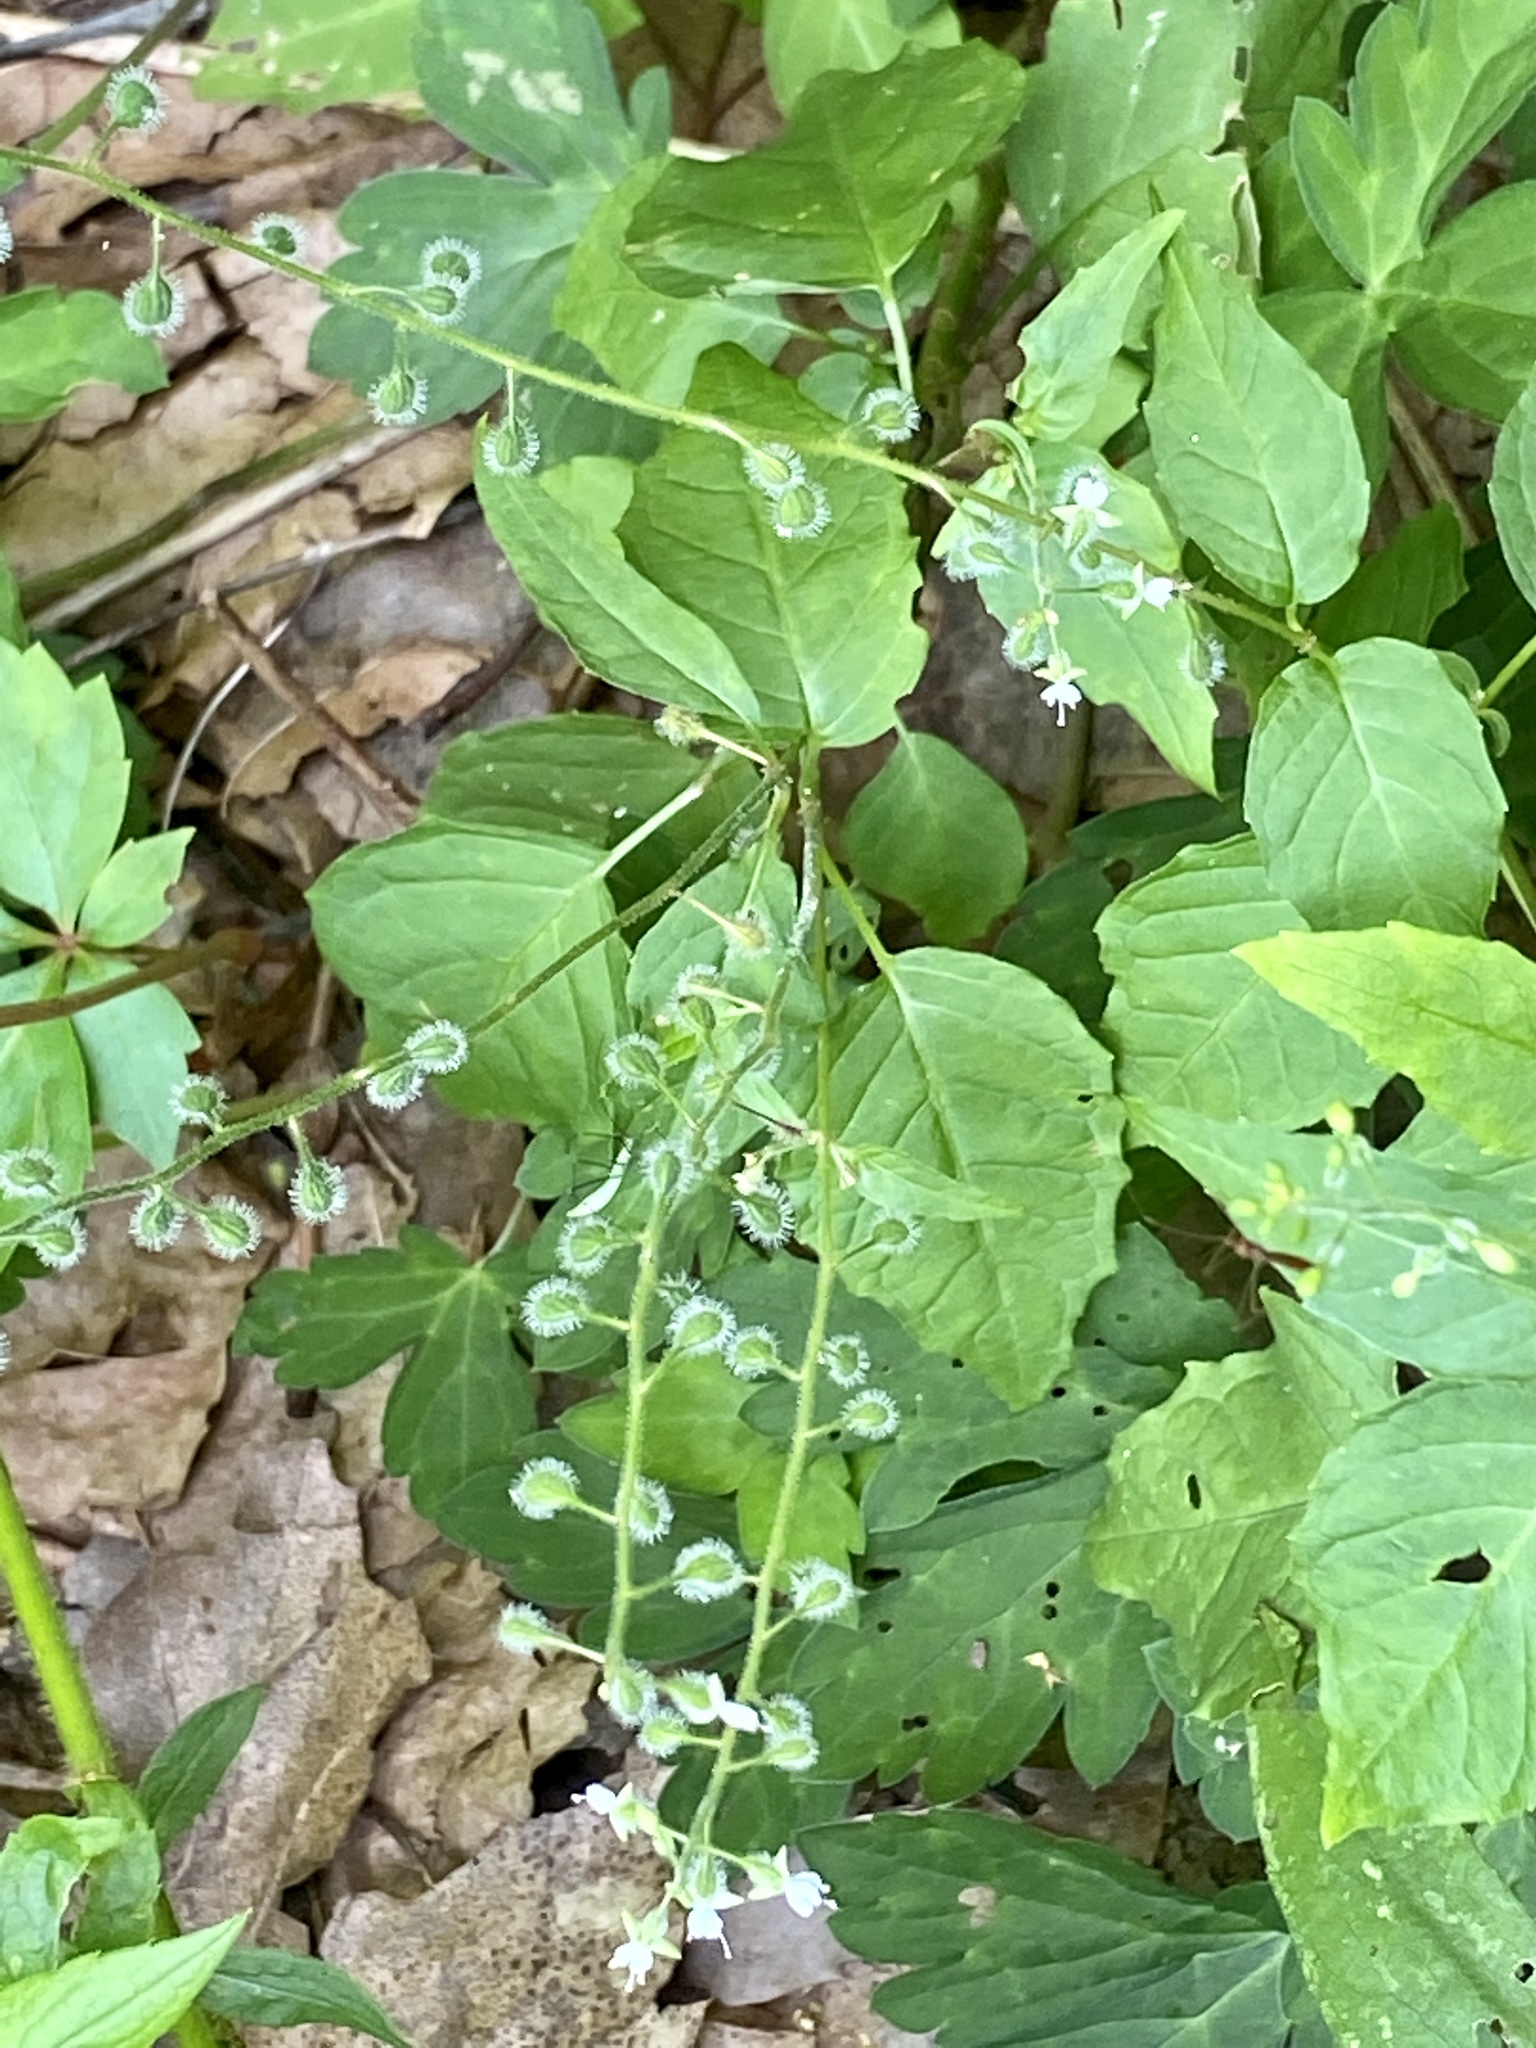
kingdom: Plantae
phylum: Tracheophyta
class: Magnoliopsida
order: Myrtales
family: Onagraceae
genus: Circaea
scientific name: Circaea canadensis
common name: Broad-leaved enchanter's nightshade
